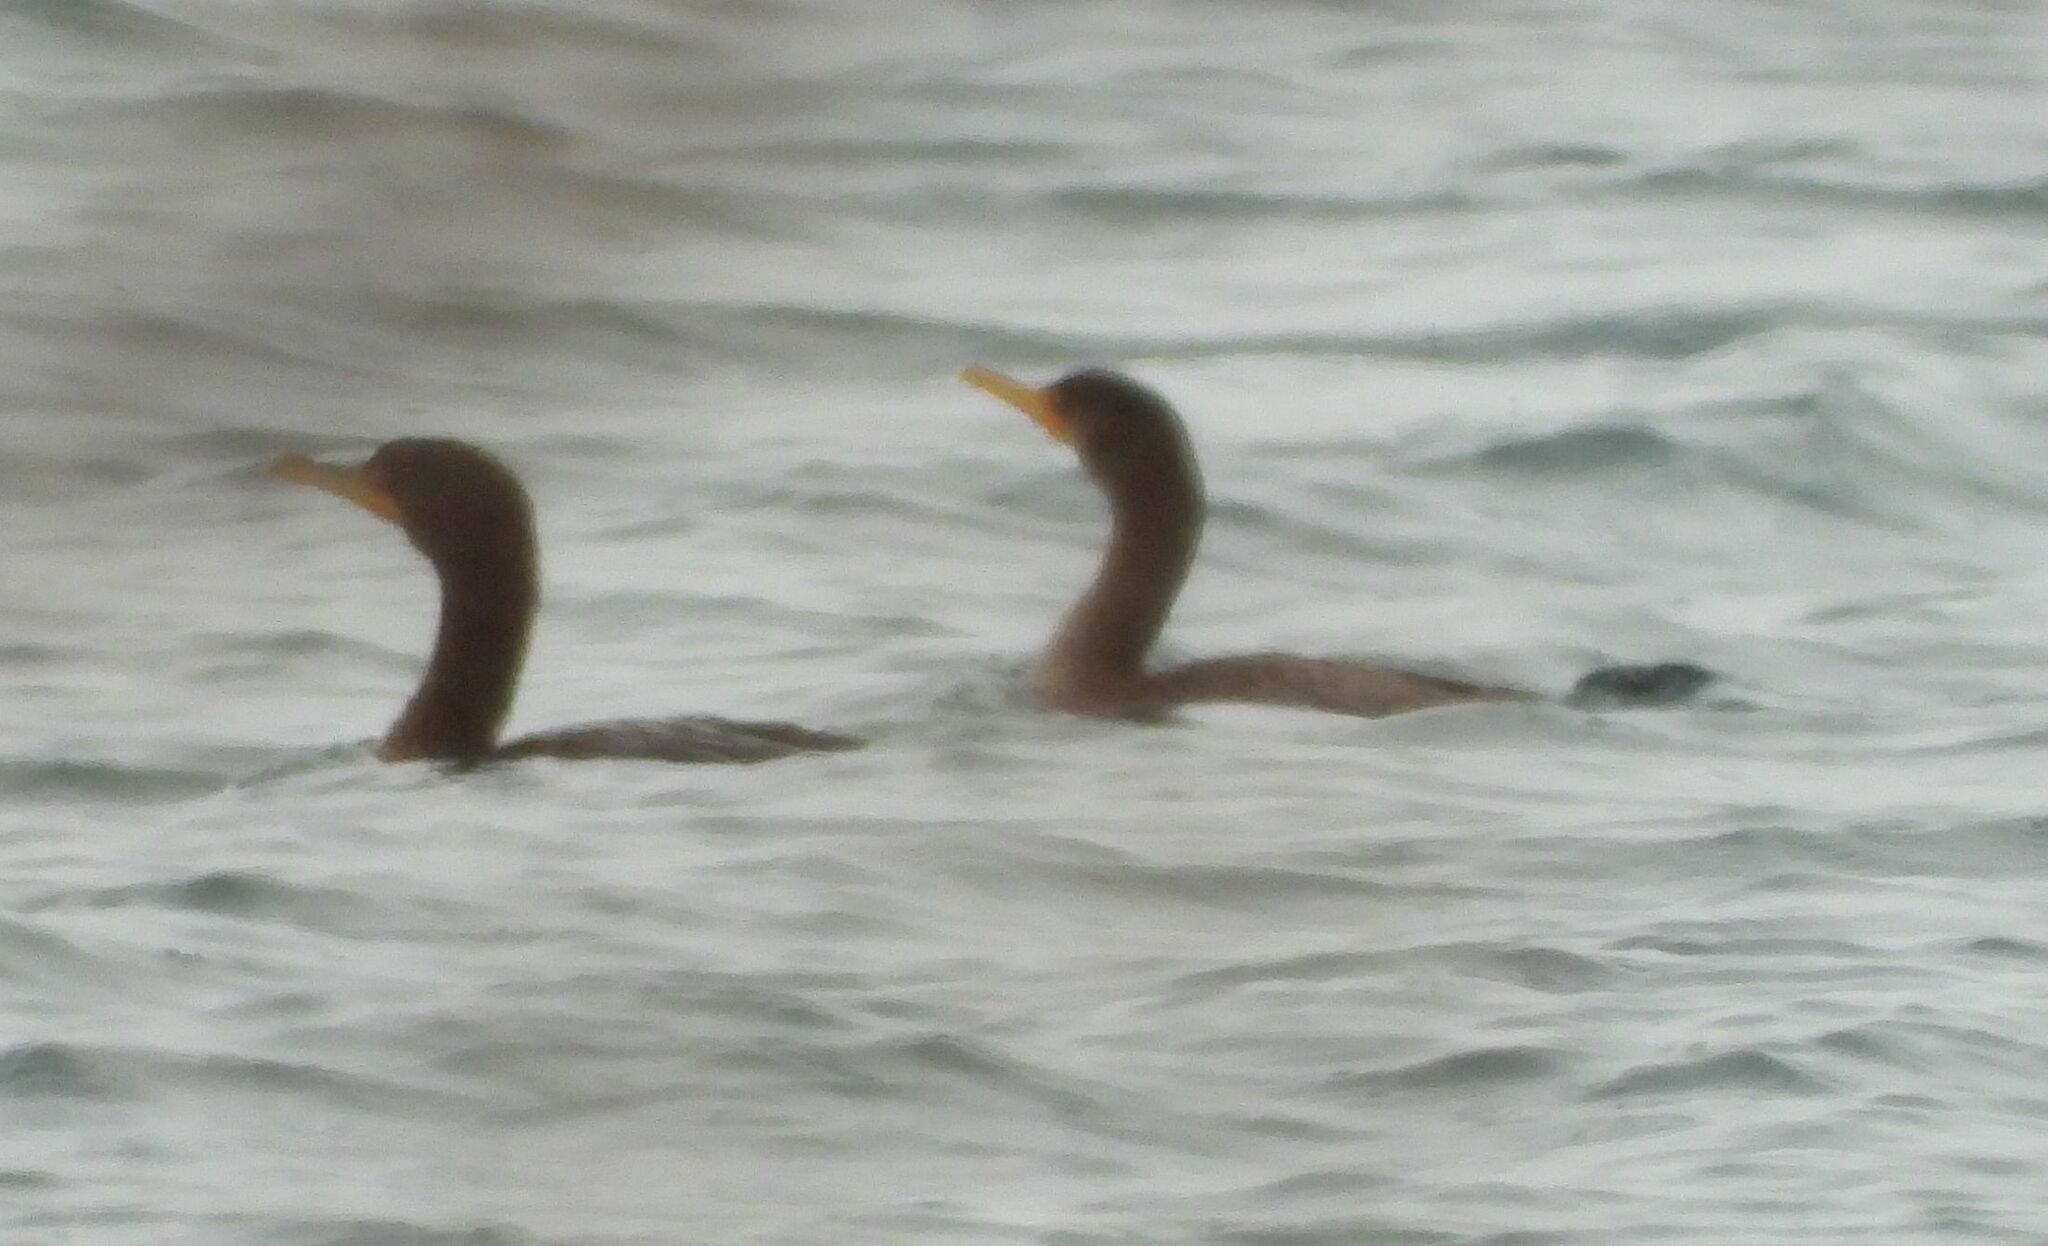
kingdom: Animalia
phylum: Chordata
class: Aves
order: Suliformes
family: Phalacrocoracidae
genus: Phalacrocorax
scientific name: Phalacrocorax auritus
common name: Double-crested cormorant
